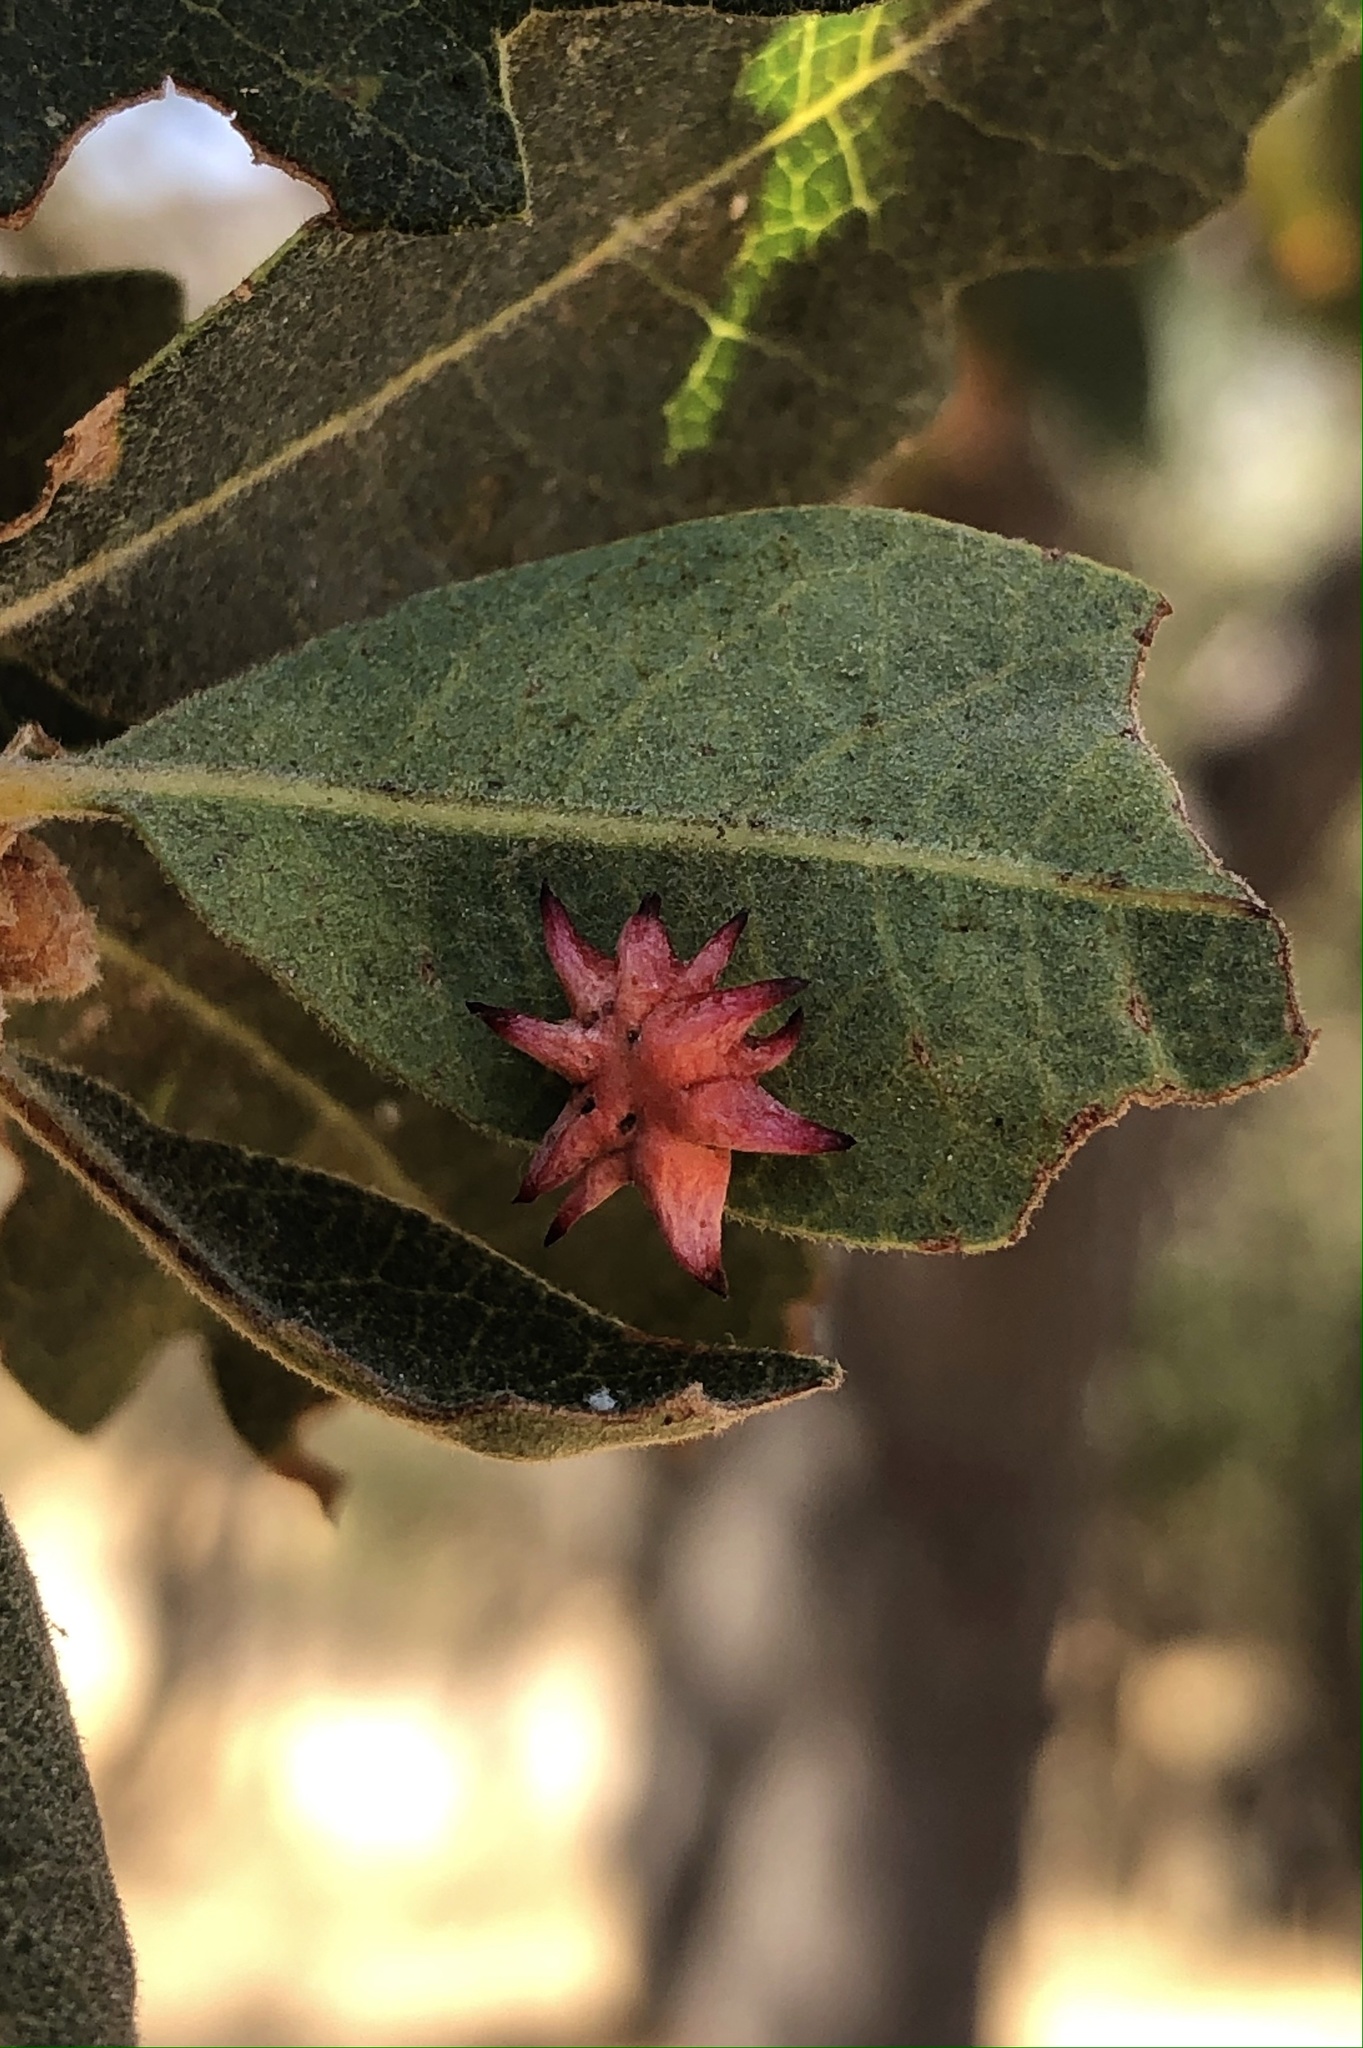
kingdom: Animalia
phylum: Arthropoda
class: Insecta
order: Hymenoptera
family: Cynipidae
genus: Cynips
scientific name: Cynips
